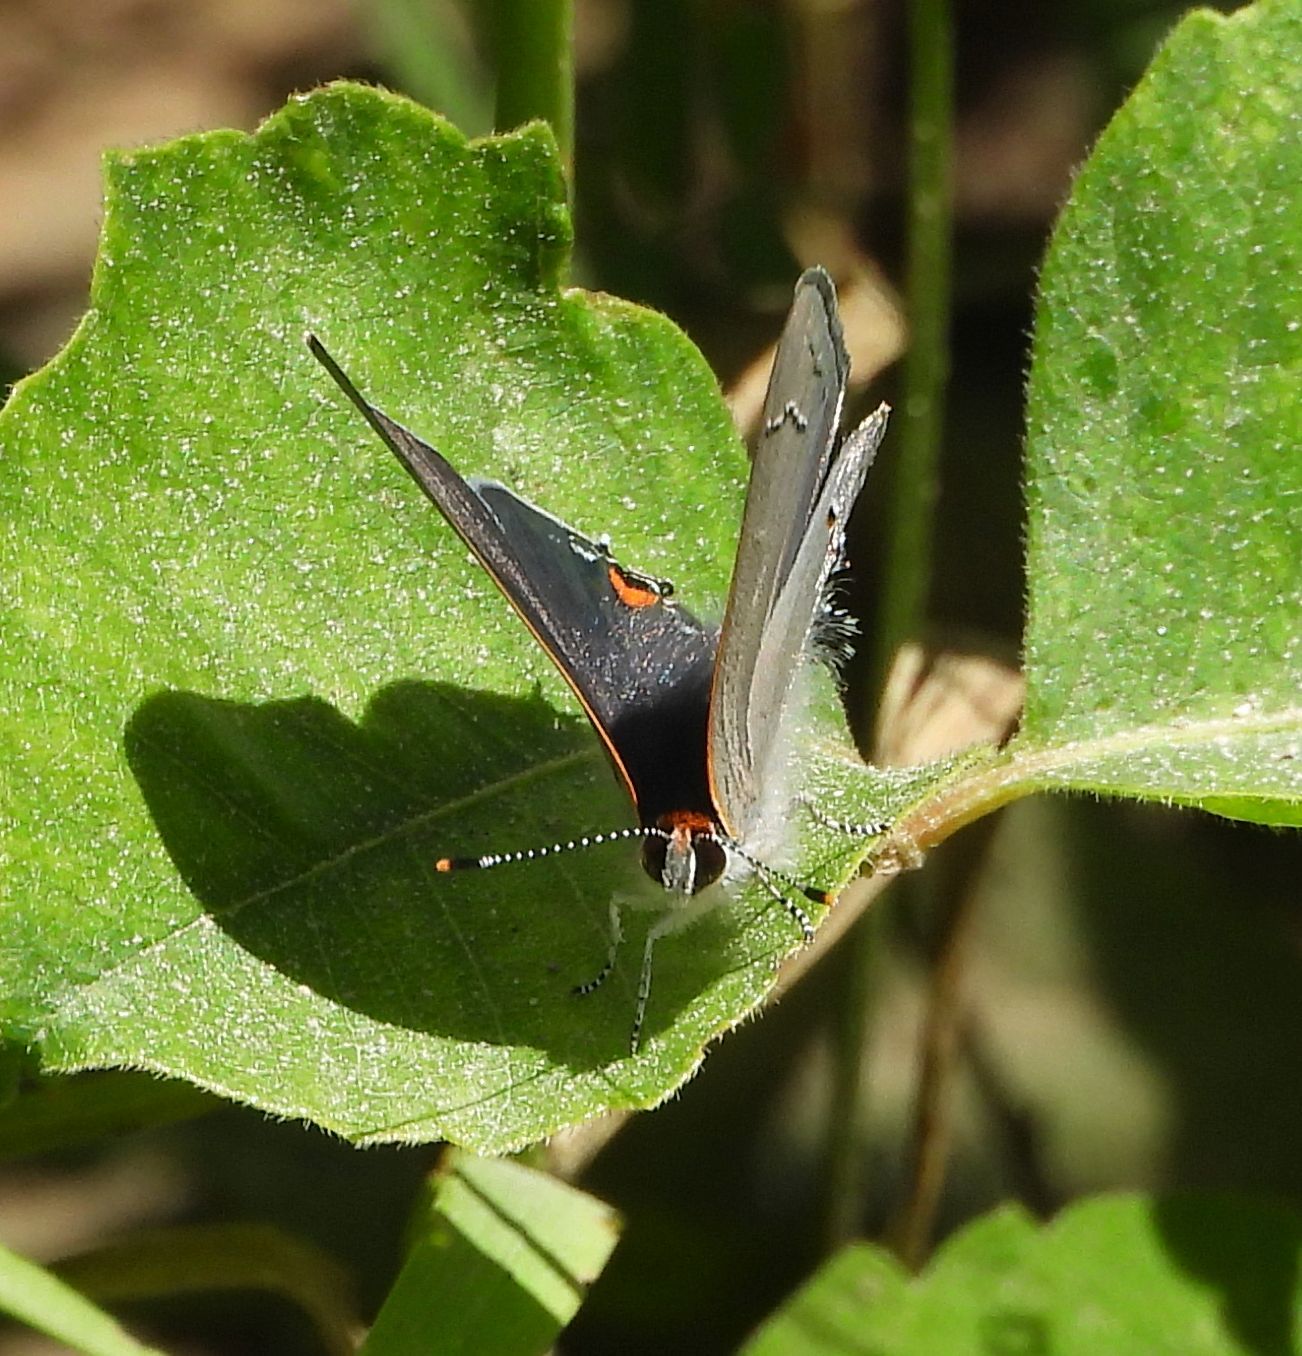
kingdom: Animalia
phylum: Arthropoda
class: Insecta
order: Lepidoptera
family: Lycaenidae
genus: Strymon
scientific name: Strymon melinus
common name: Gray hairstreak
